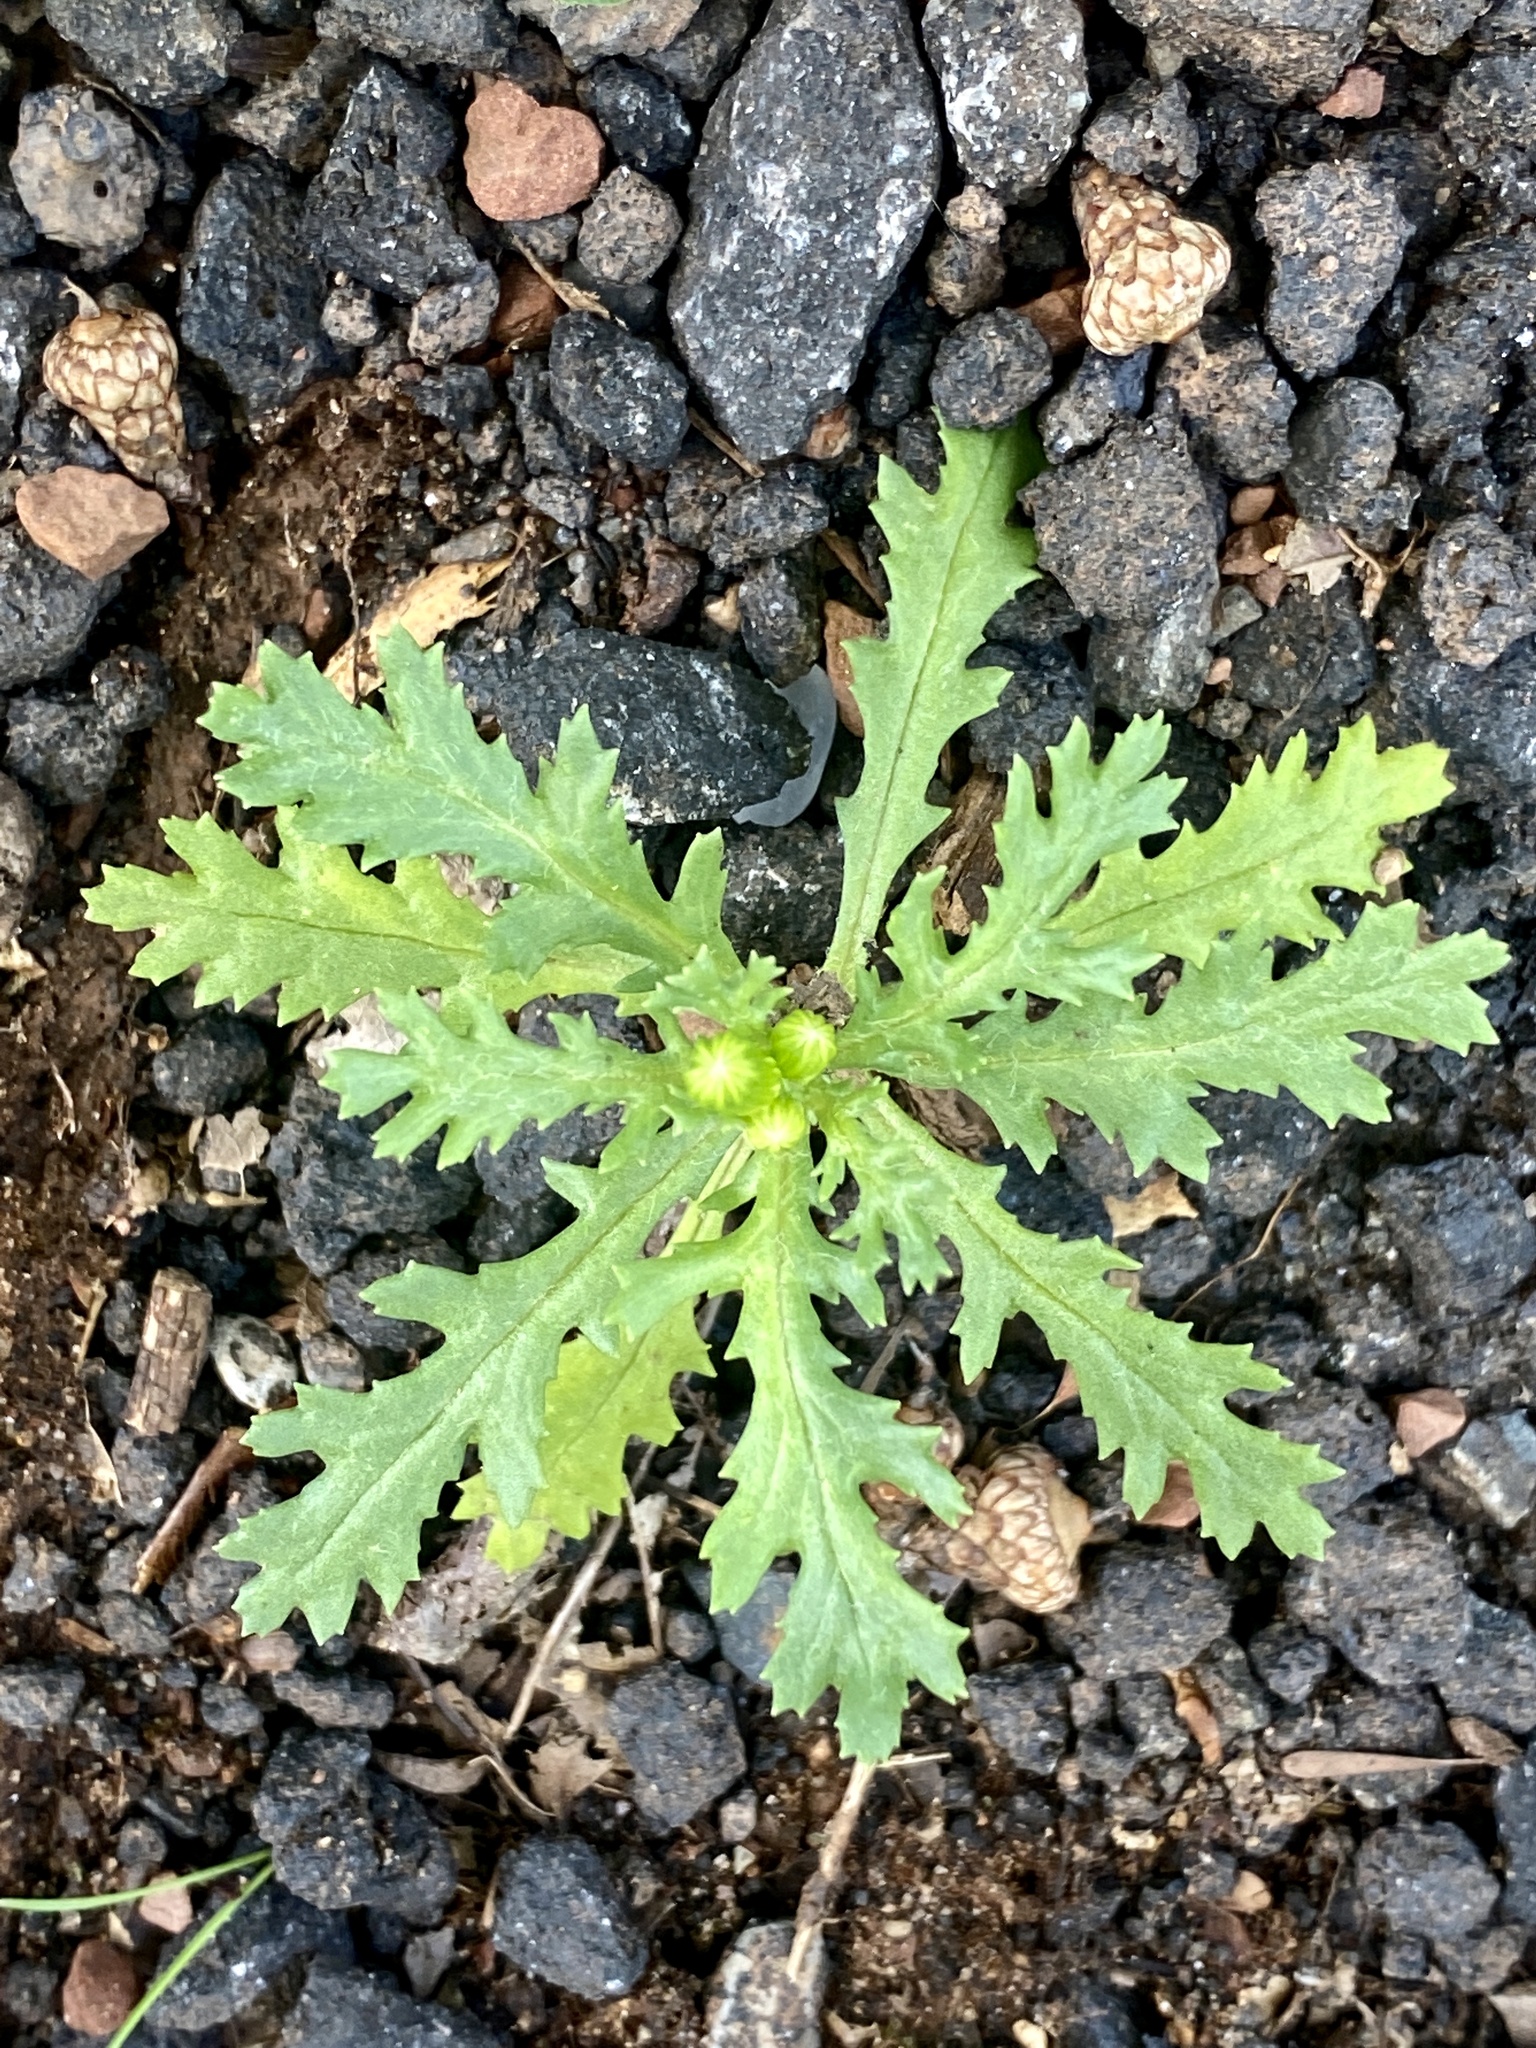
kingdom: Plantae
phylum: Tracheophyta
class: Magnoliopsida
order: Asterales
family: Asteraceae
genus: Senecio
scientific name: Senecio vulgaris
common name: Old-man-in-the-spring
